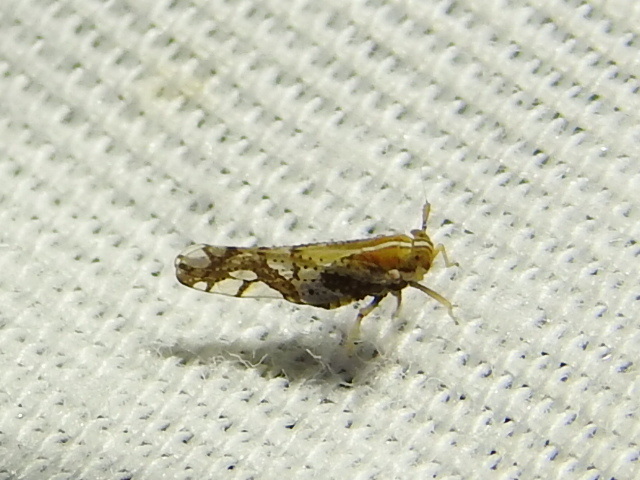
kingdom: Animalia
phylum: Arthropoda
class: Insecta
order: Hemiptera
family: Delphacidae
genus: Liburniella
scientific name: Liburniella ornata
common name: Ornate planthopper
